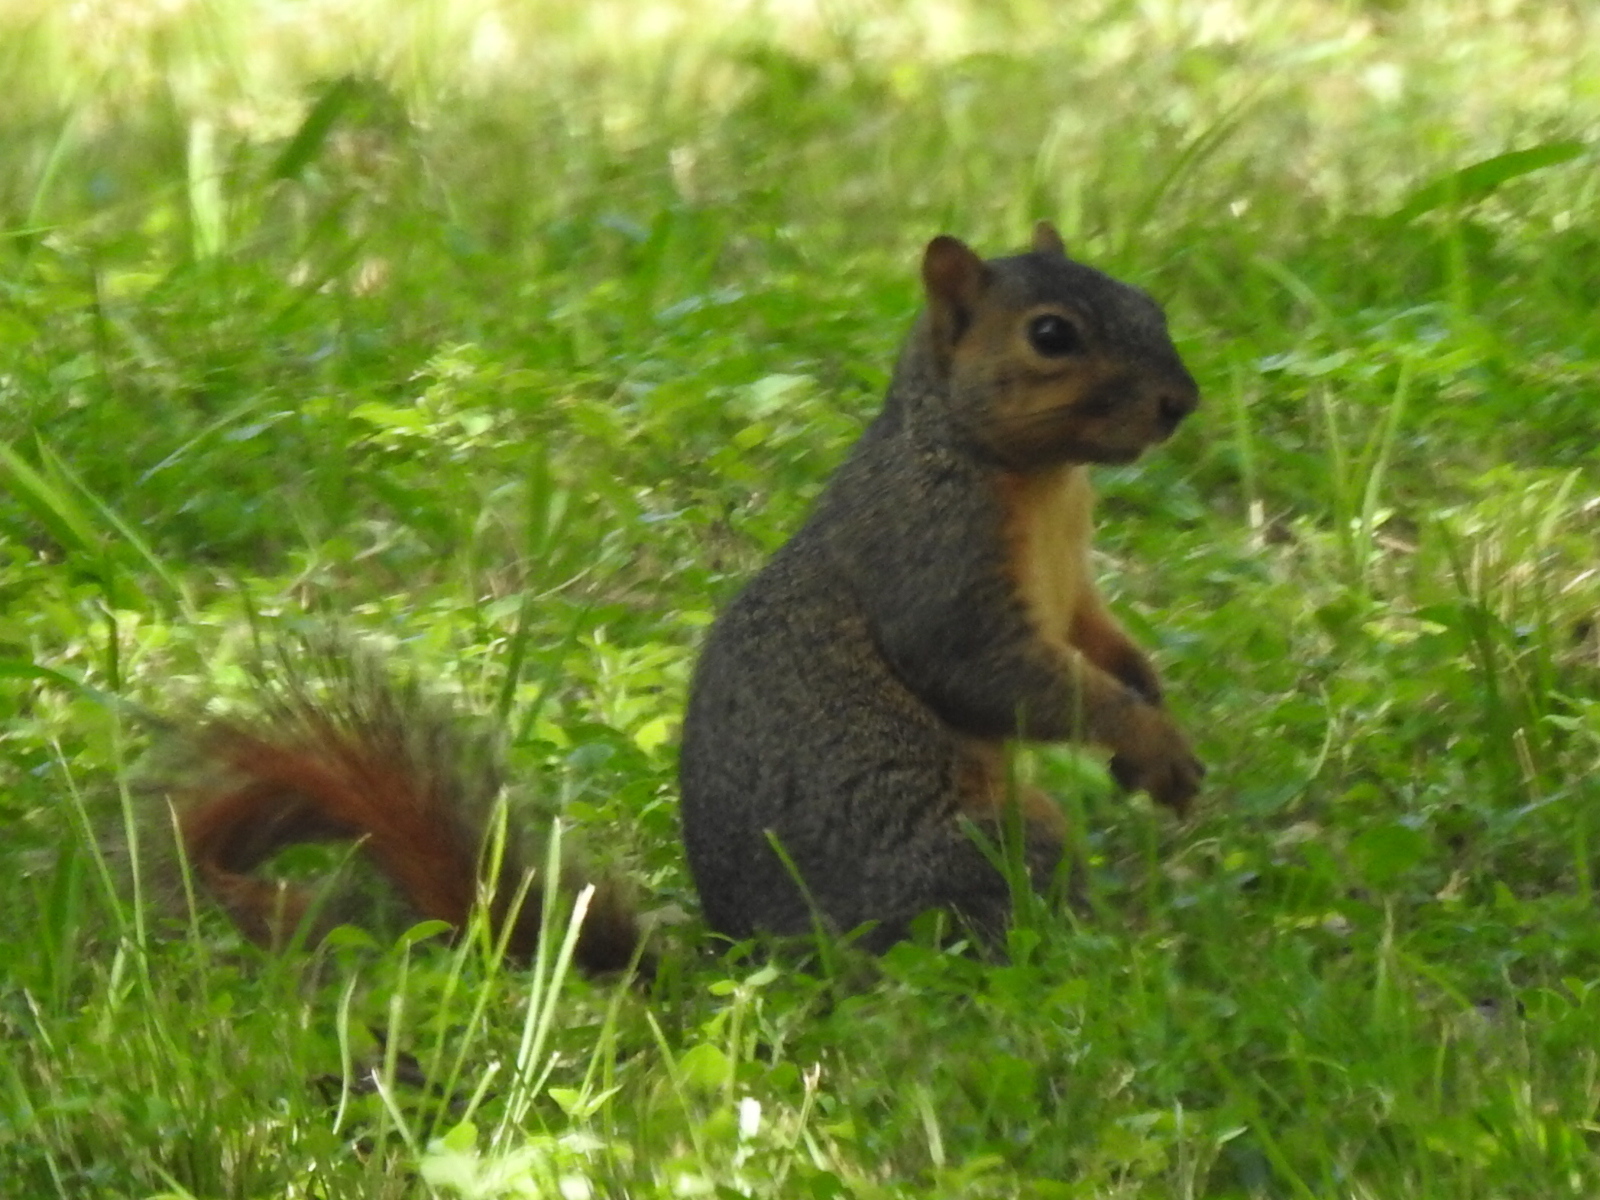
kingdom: Animalia
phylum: Chordata
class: Mammalia
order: Rodentia
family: Sciuridae
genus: Sciurus
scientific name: Sciurus niger
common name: Fox squirrel
